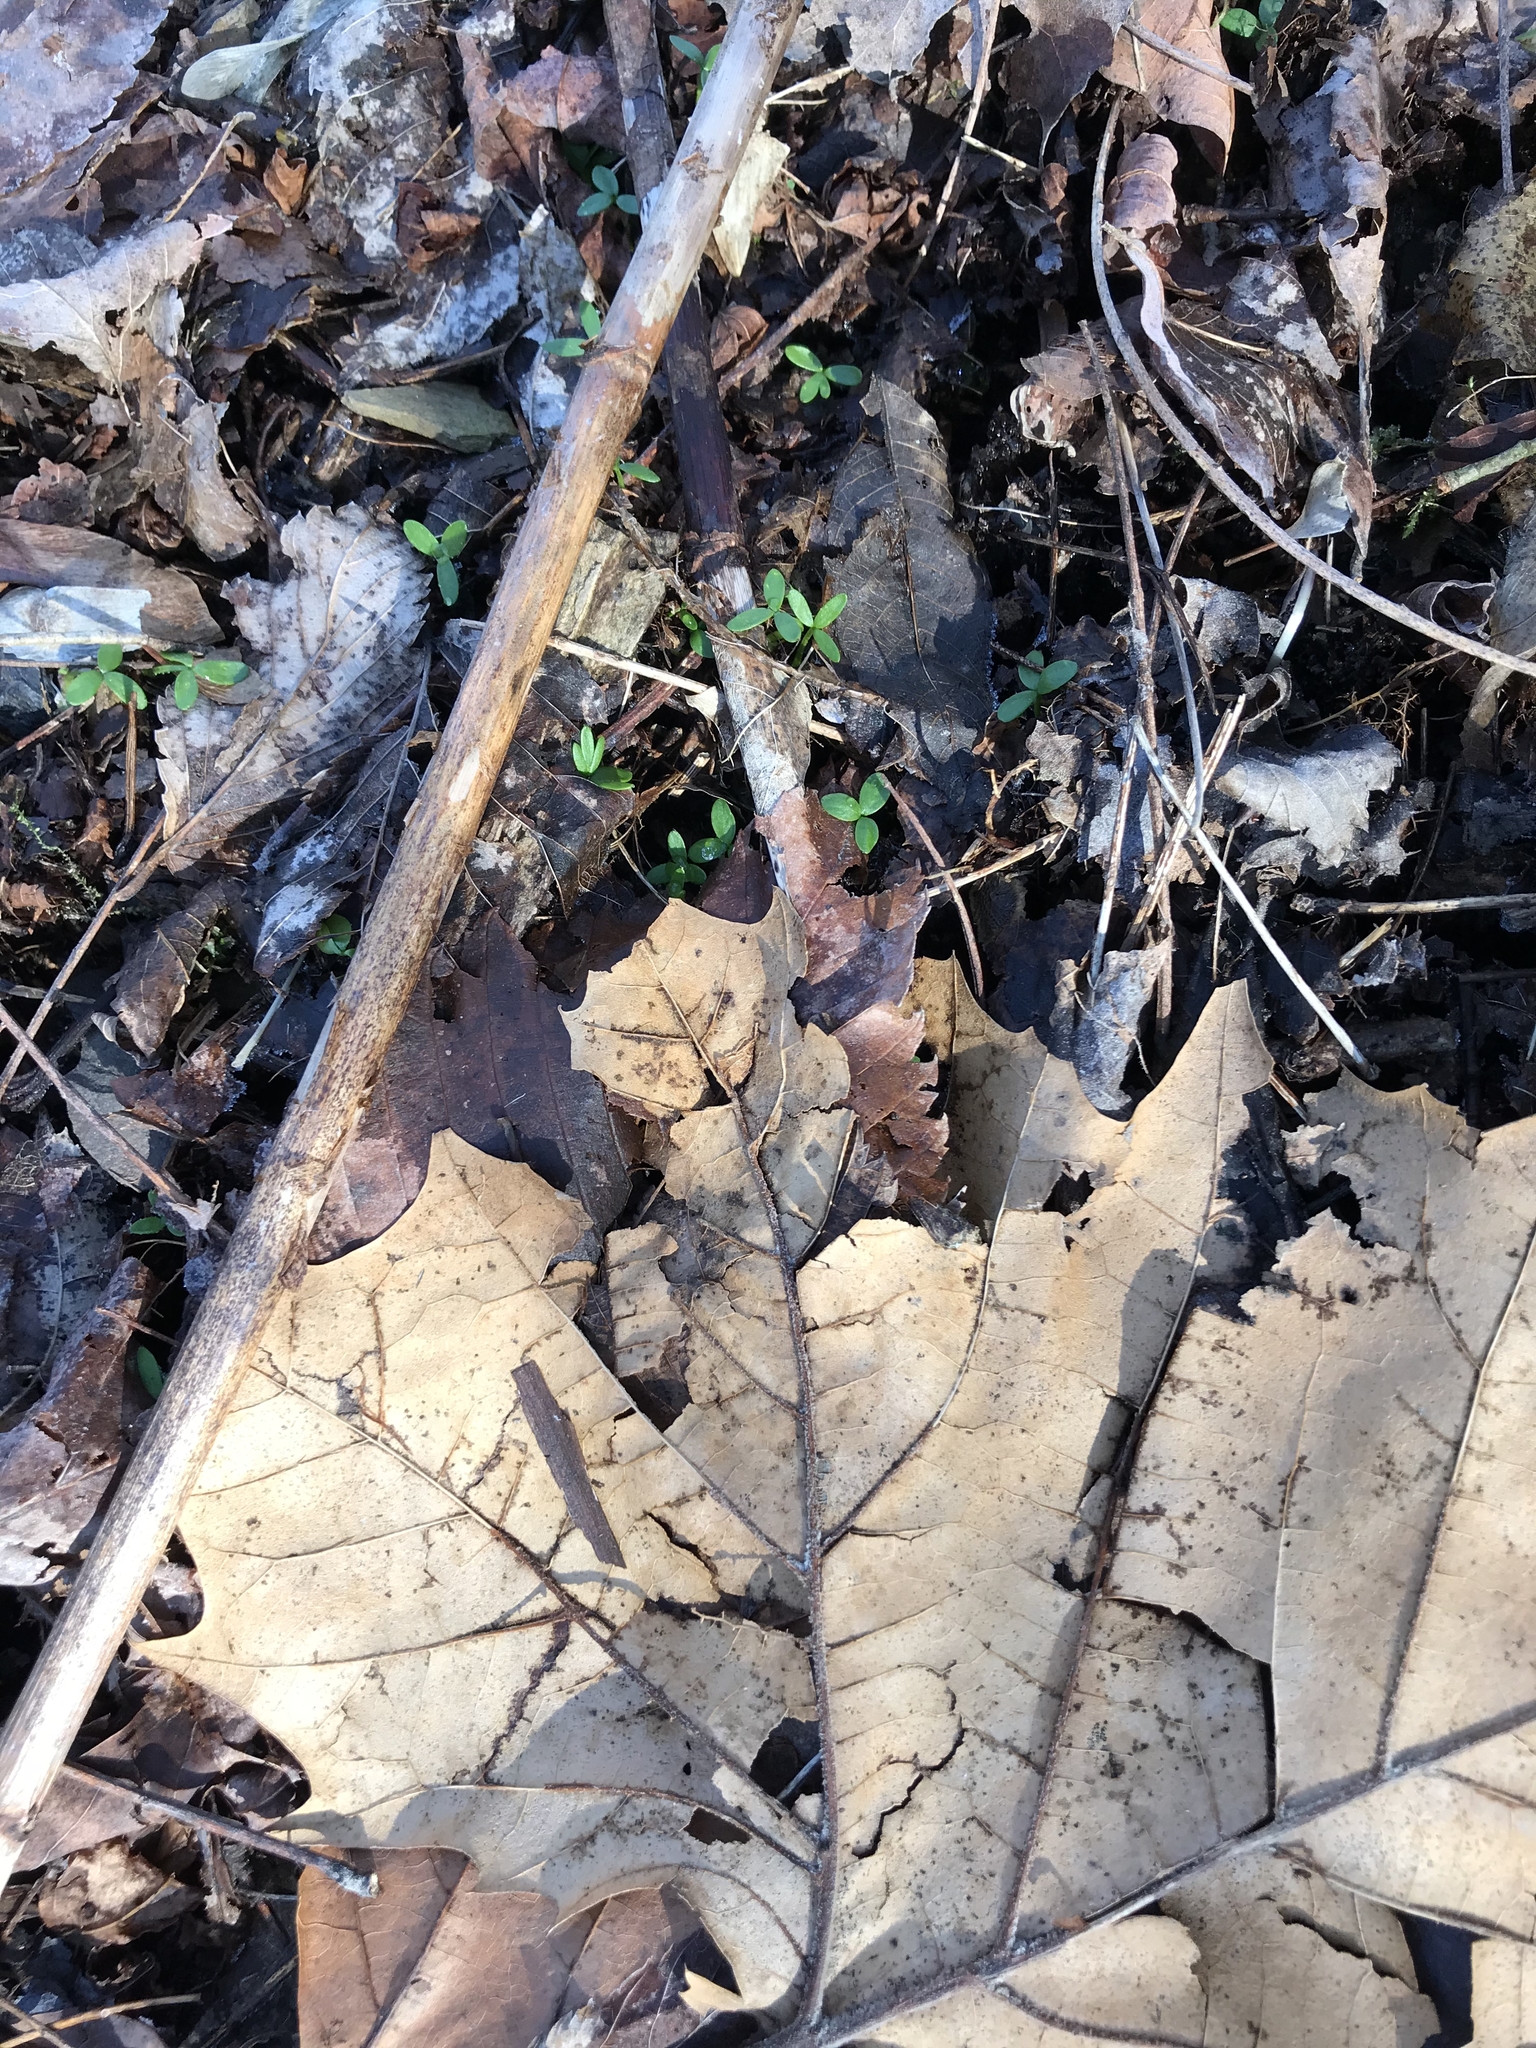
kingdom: Plantae
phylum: Tracheophyta
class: Magnoliopsida
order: Brassicales
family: Limnanthaceae
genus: Floerkea
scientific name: Floerkea proserpinacoides
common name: False mermaid
